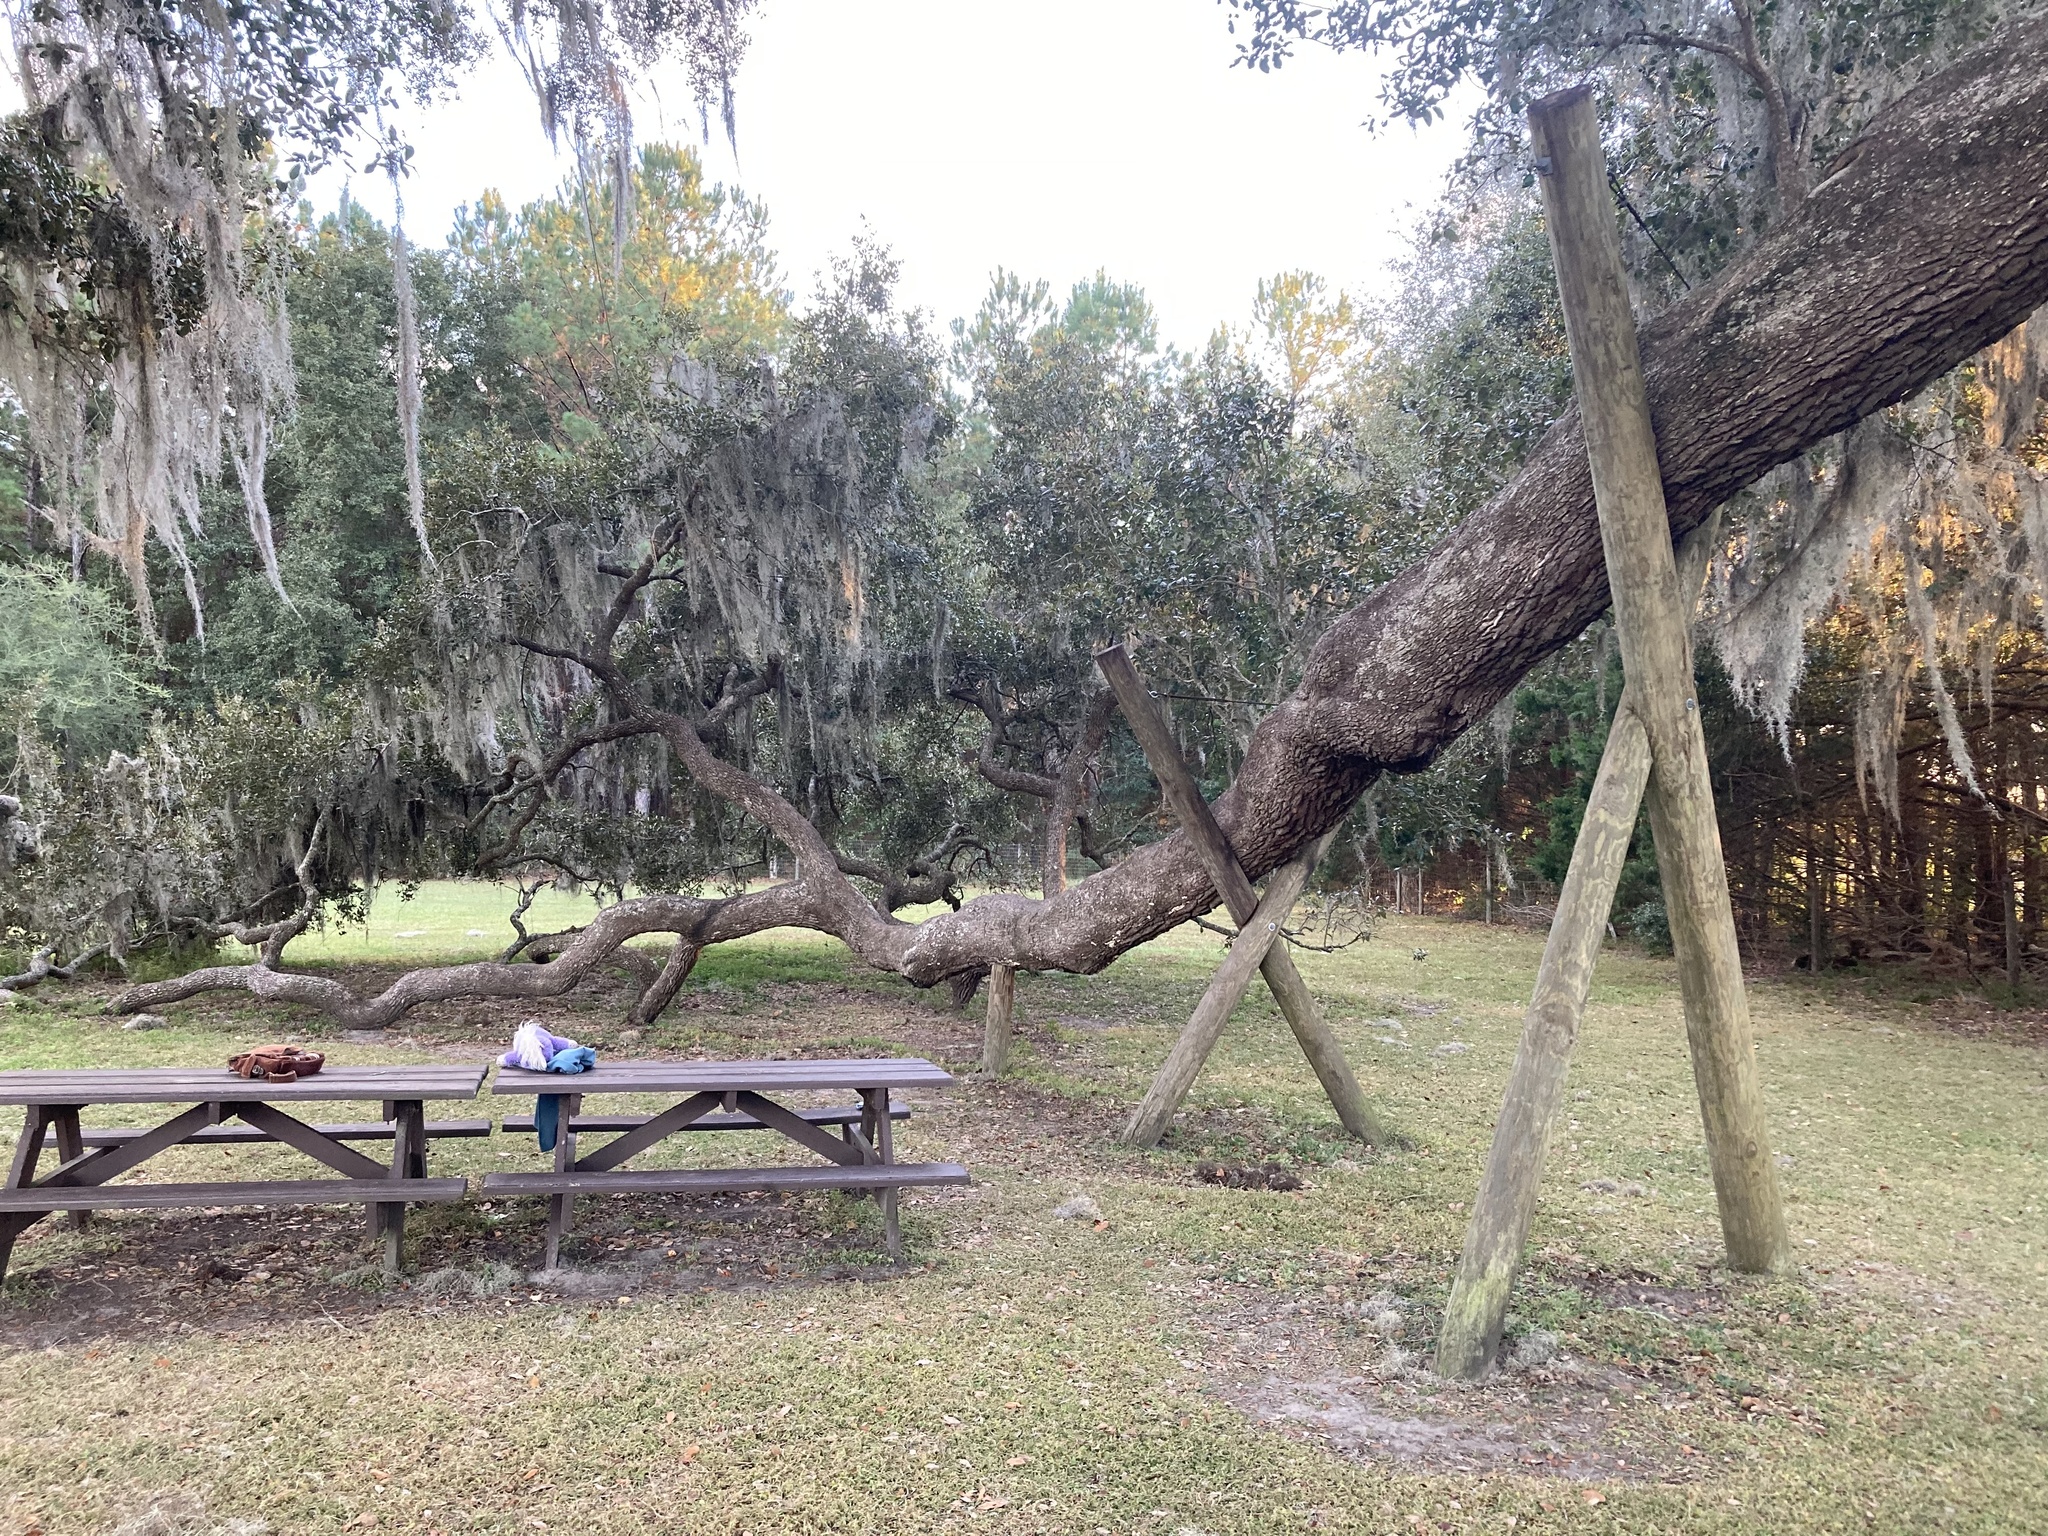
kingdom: Plantae
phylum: Tracheophyta
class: Magnoliopsida
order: Fagales
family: Fagaceae
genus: Quercus
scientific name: Quercus virginiana
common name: Southern live oak
